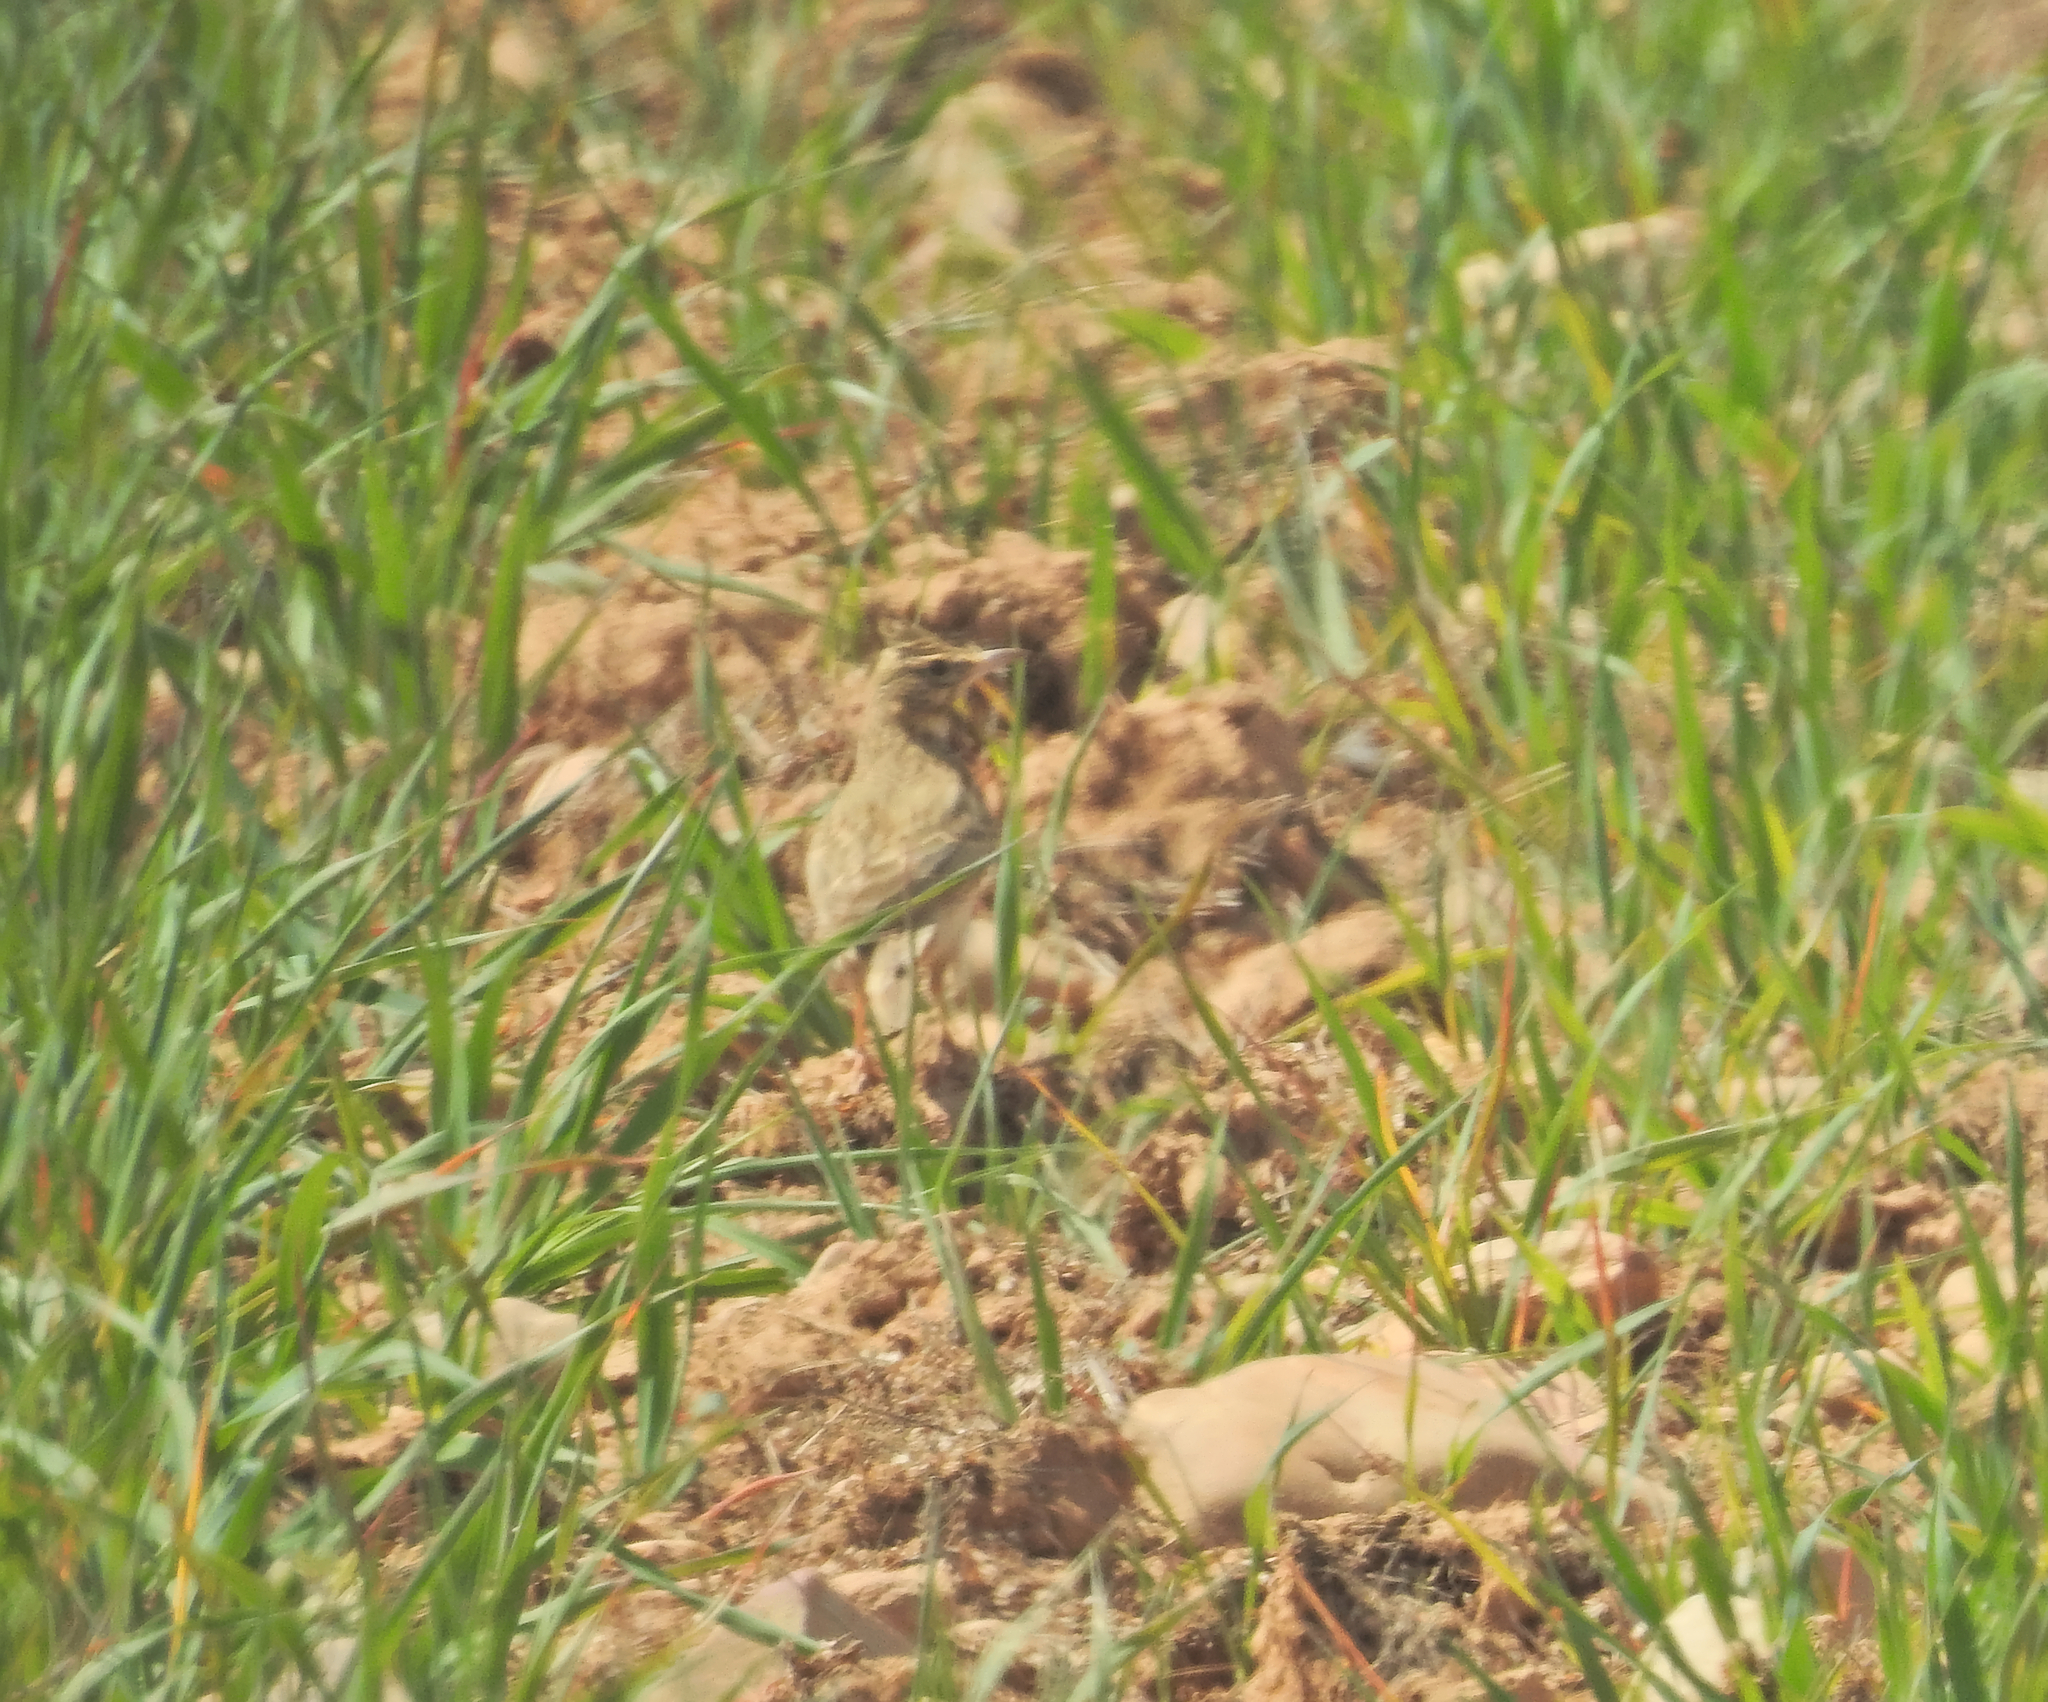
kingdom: Animalia
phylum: Chordata
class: Aves
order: Passeriformes
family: Alaudidae
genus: Galerida
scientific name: Galerida cristata
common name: Crested lark
